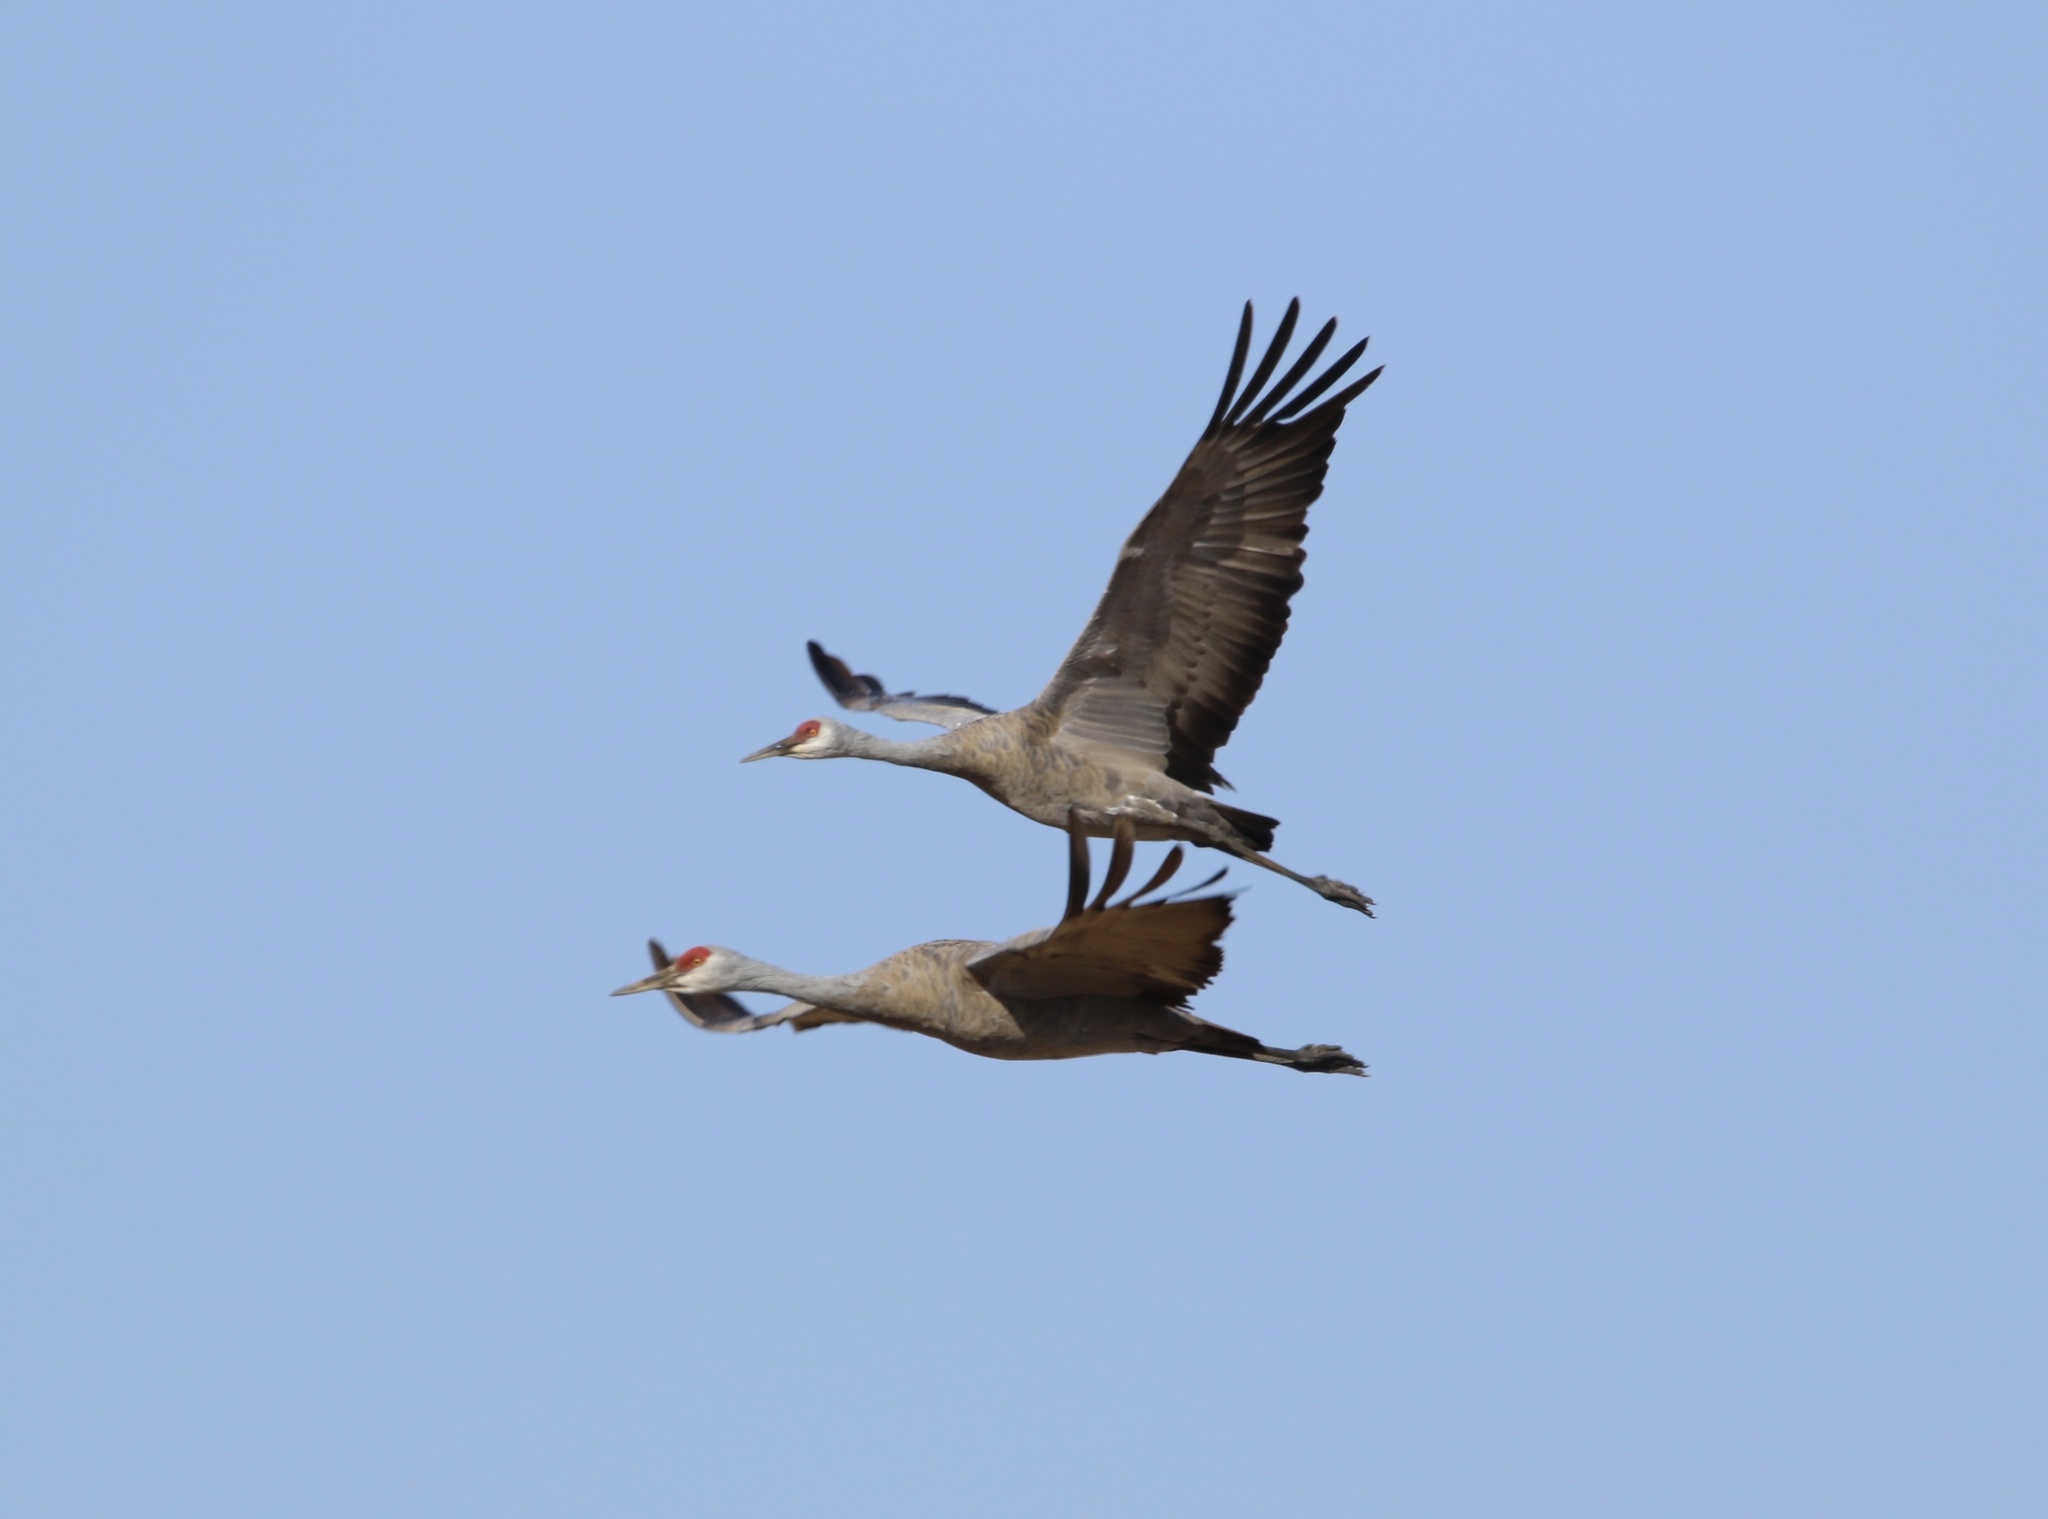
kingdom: Animalia
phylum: Chordata
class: Aves
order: Gruiformes
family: Gruidae
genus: Grus
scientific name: Grus canadensis
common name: Sandhill crane
